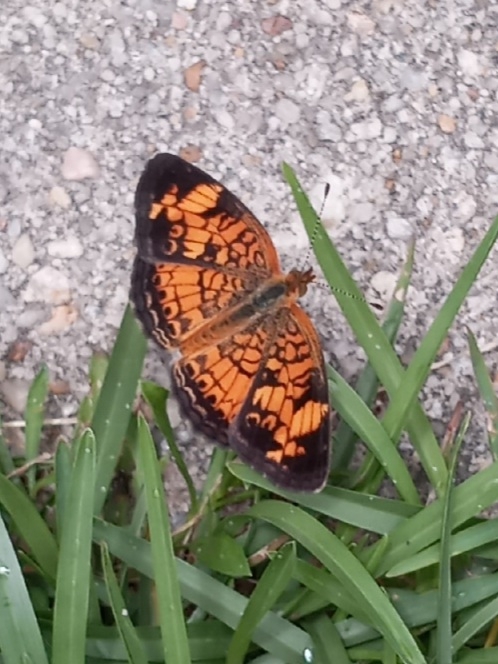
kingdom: Animalia
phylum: Arthropoda
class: Insecta
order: Lepidoptera
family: Nymphalidae
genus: Phyciodes
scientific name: Phyciodes tharos
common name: Pearl crescent
